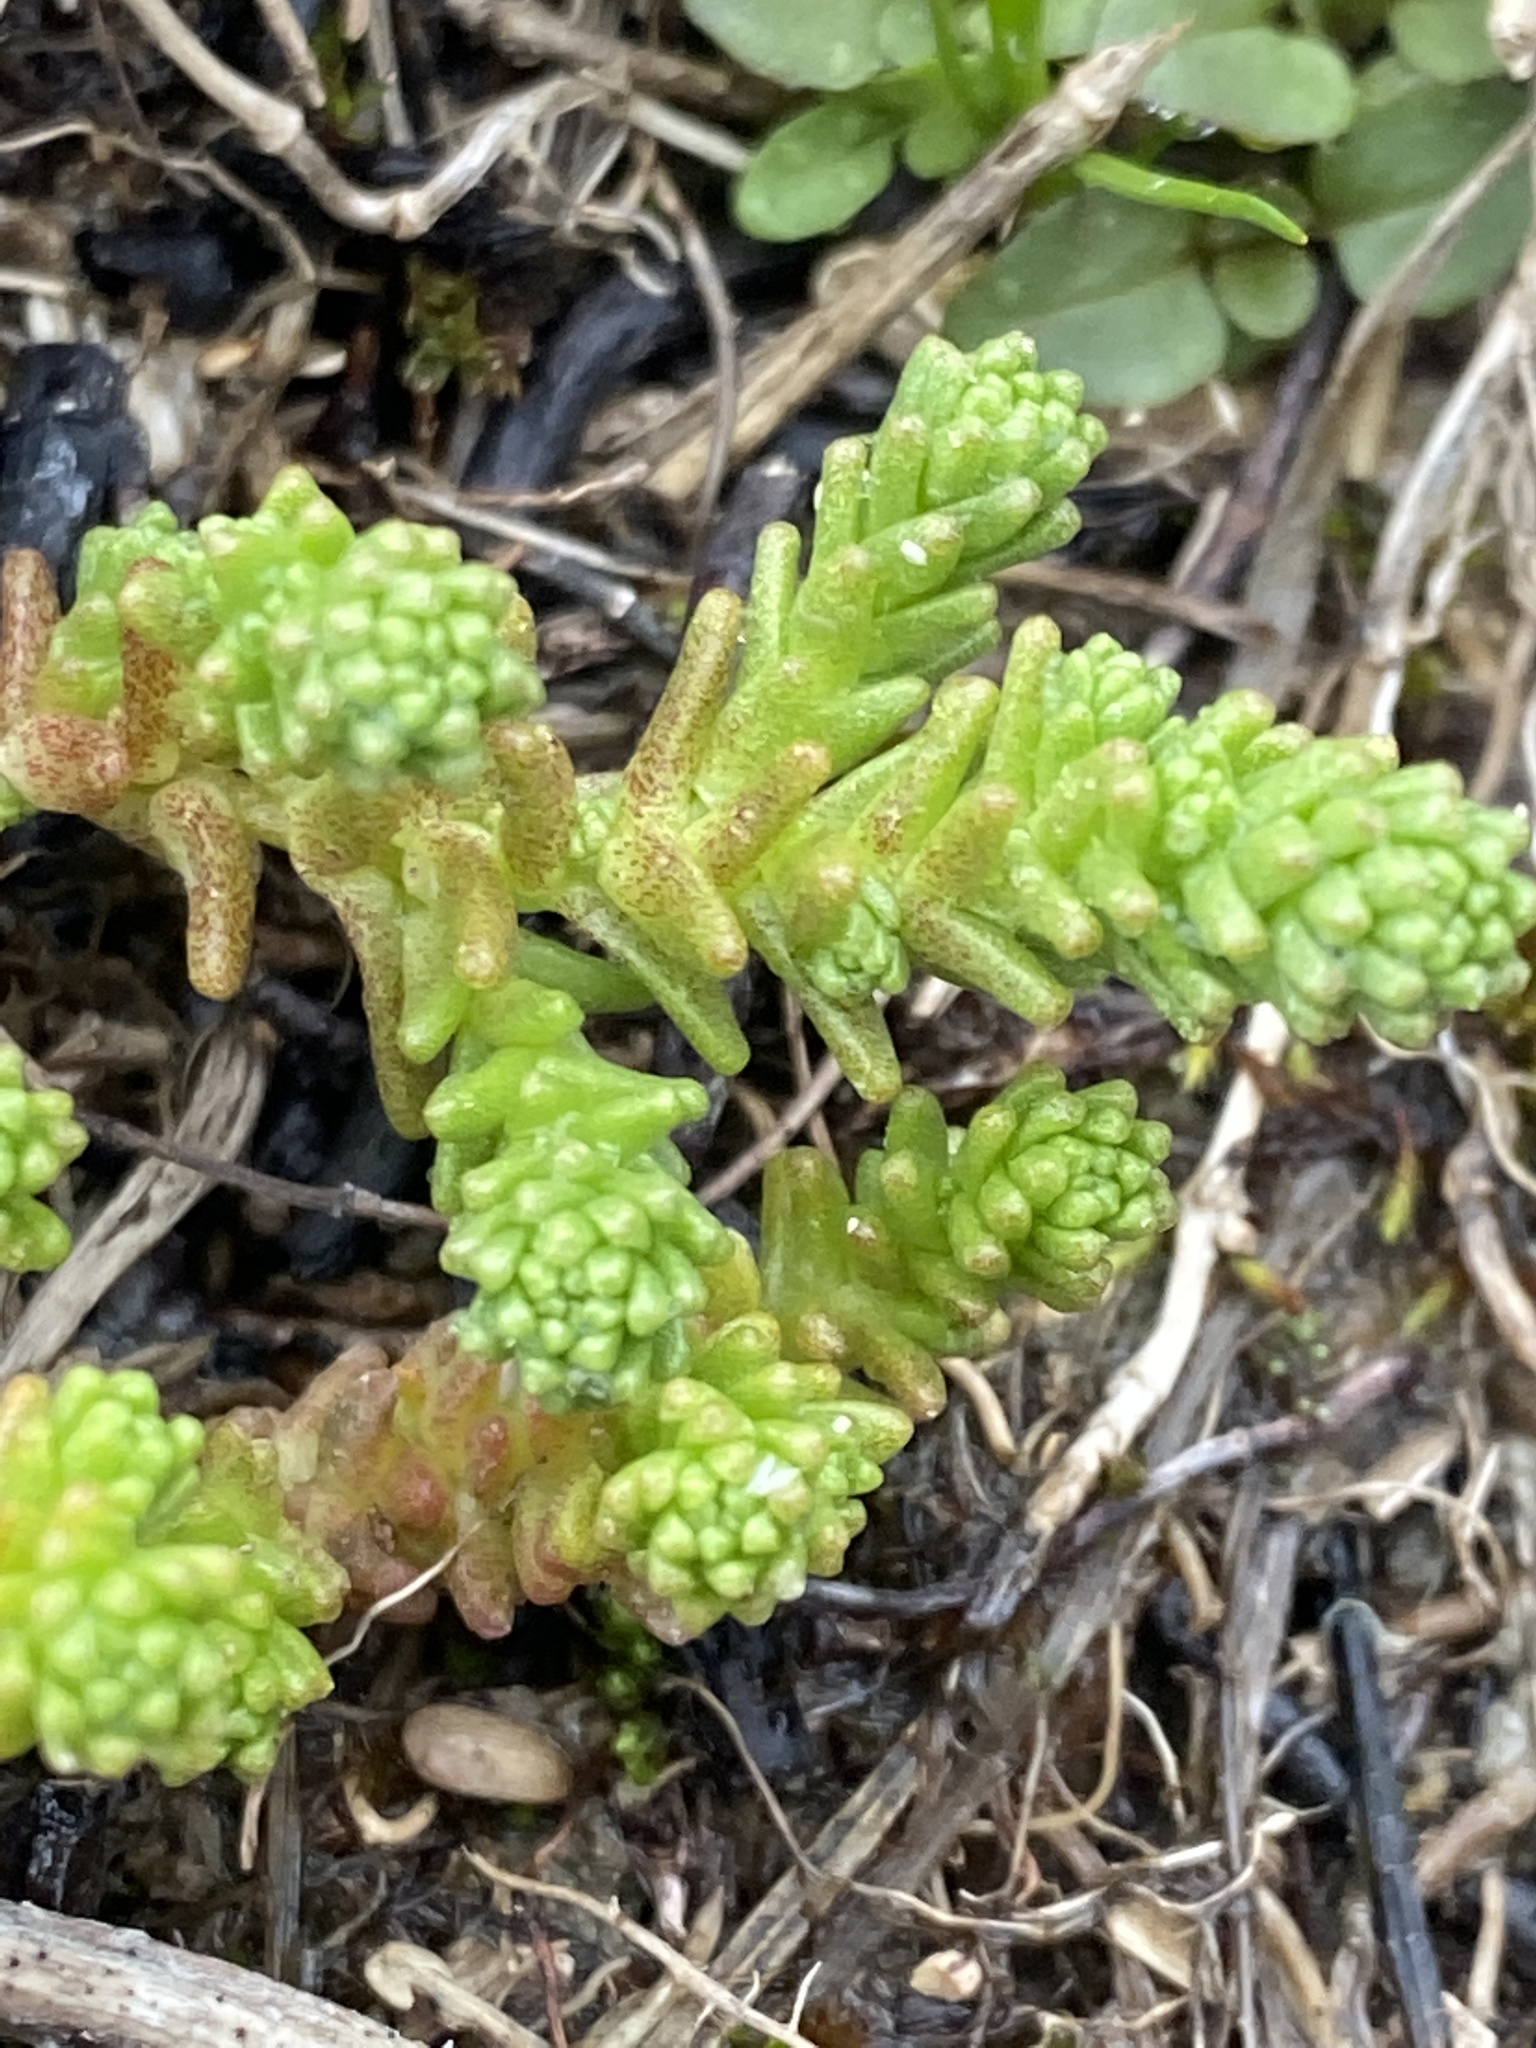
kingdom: Plantae
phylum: Tracheophyta
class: Magnoliopsida
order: Saxifragales
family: Crassulaceae
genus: Sedum
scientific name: Sedum acre
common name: Biting stonecrop
